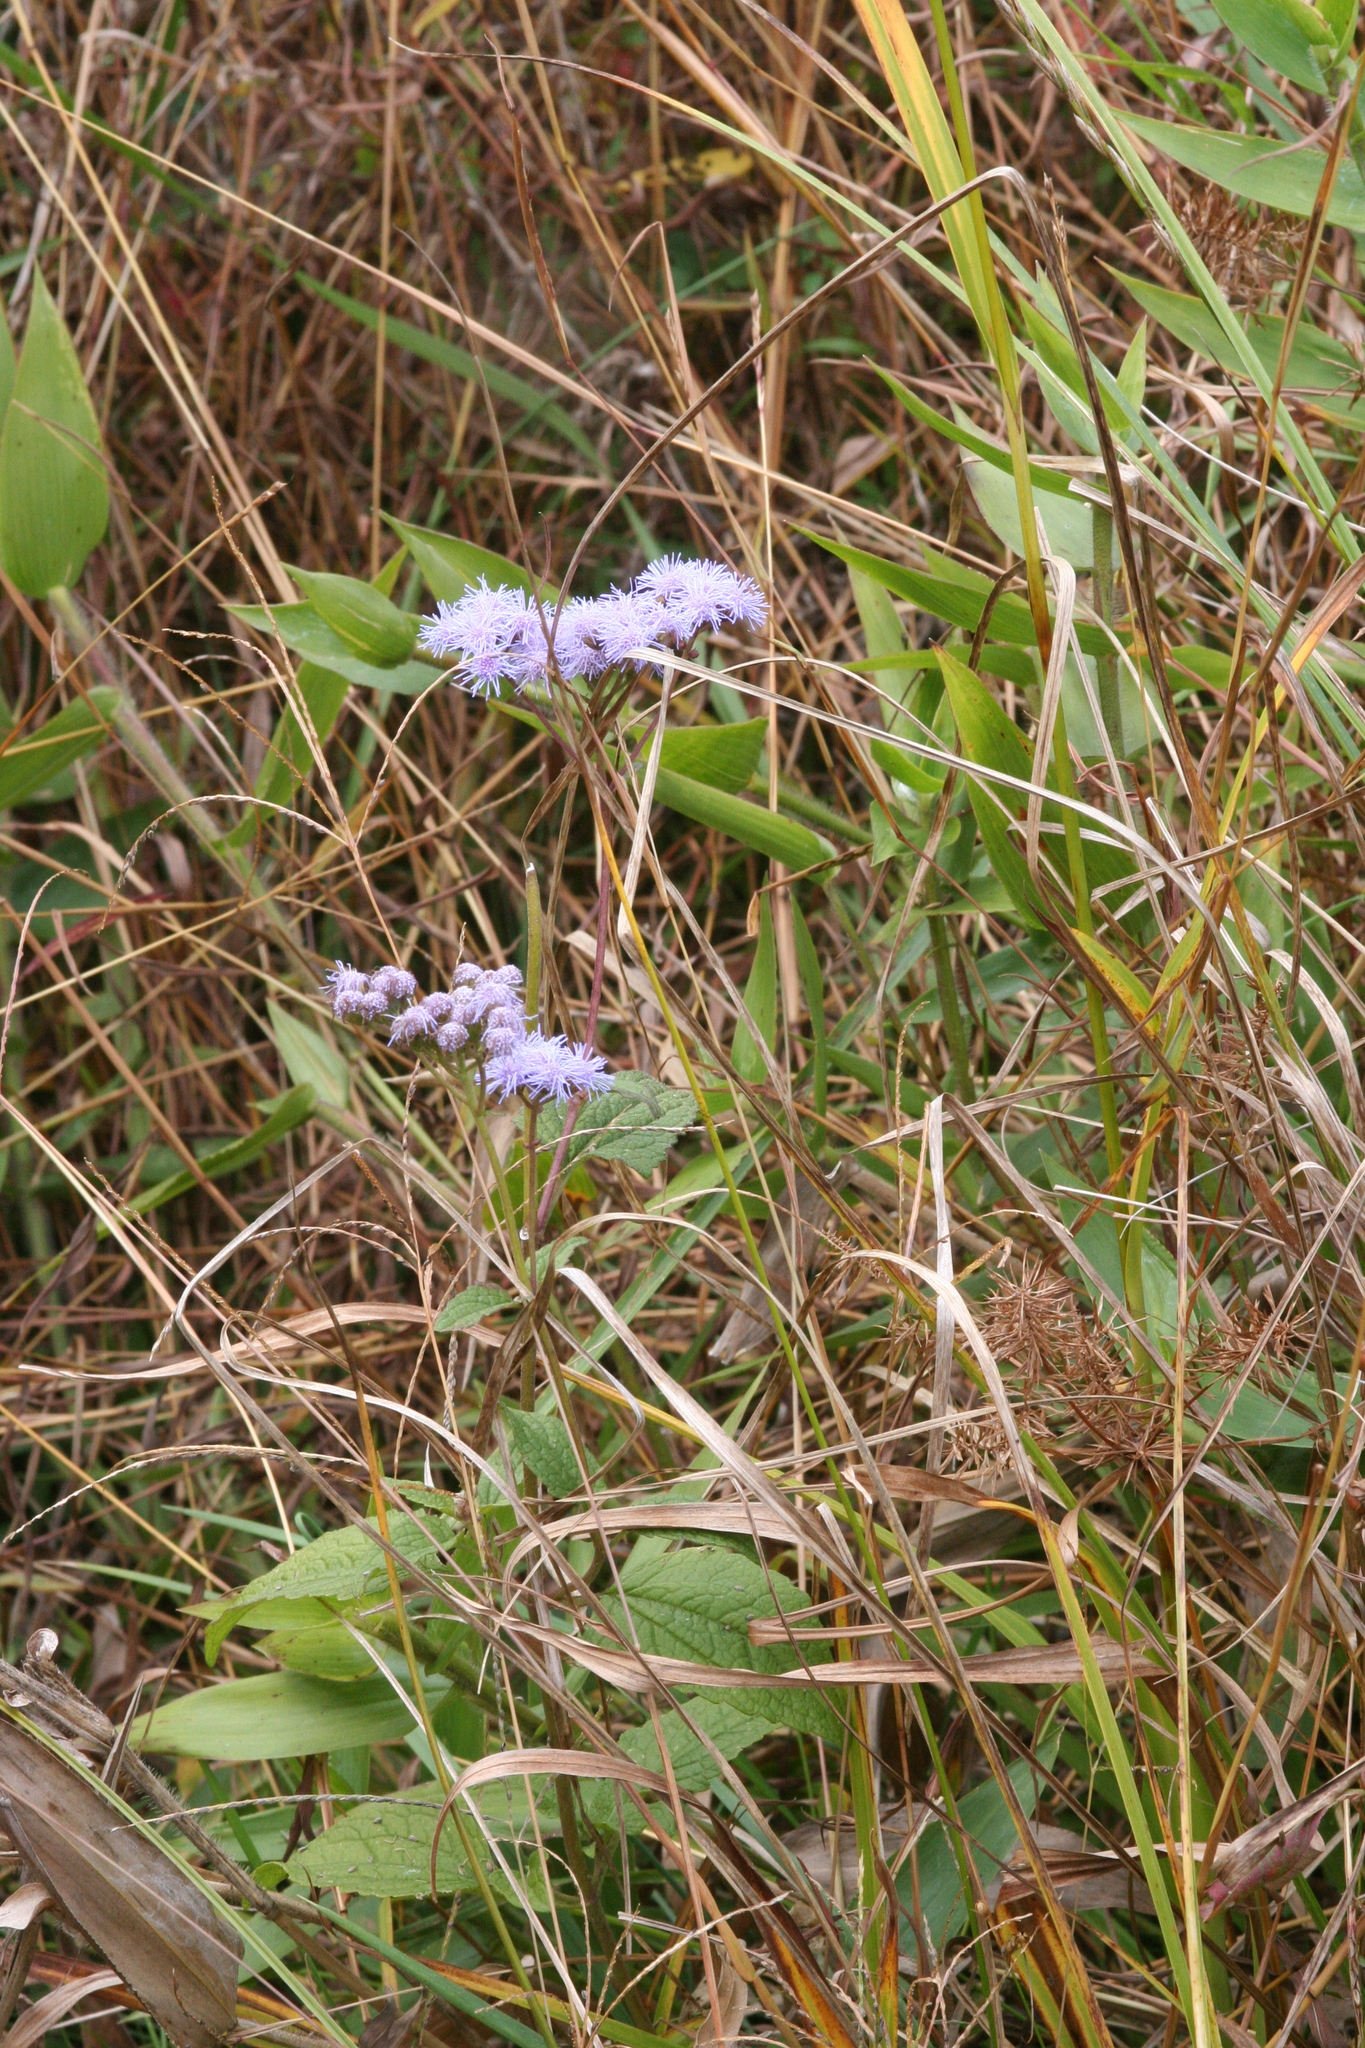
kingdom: Plantae
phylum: Tracheophyta
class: Magnoliopsida
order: Asterales
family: Asteraceae
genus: Conoclinium
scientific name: Conoclinium coelestinum
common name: Blue mistflower
